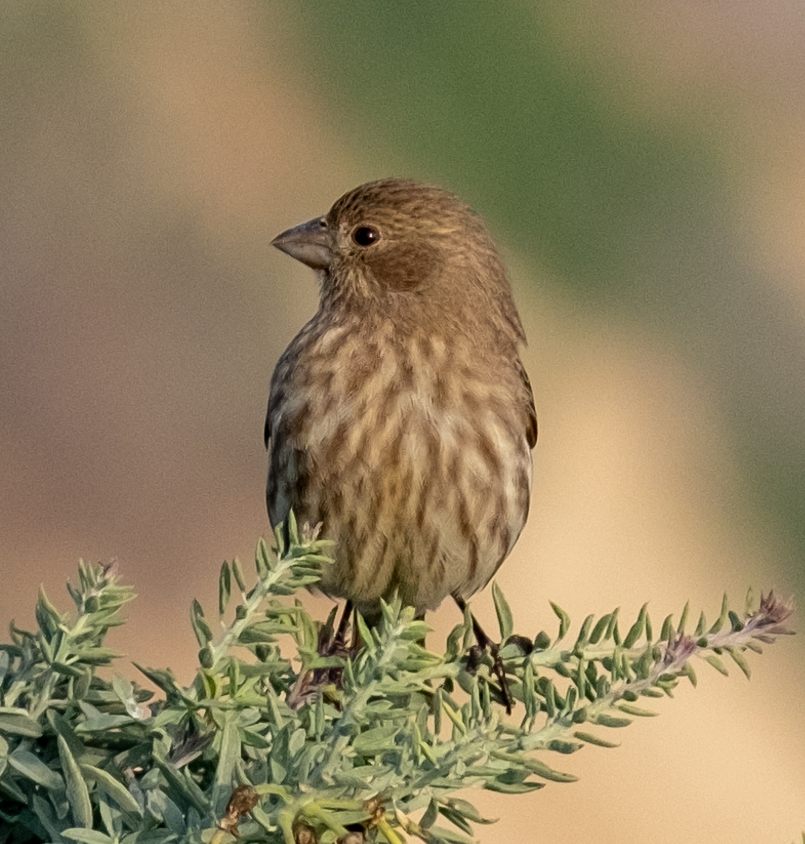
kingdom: Animalia
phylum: Chordata
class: Aves
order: Passeriformes
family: Fringillidae
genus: Haemorhous
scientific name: Haemorhous mexicanus
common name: House finch
